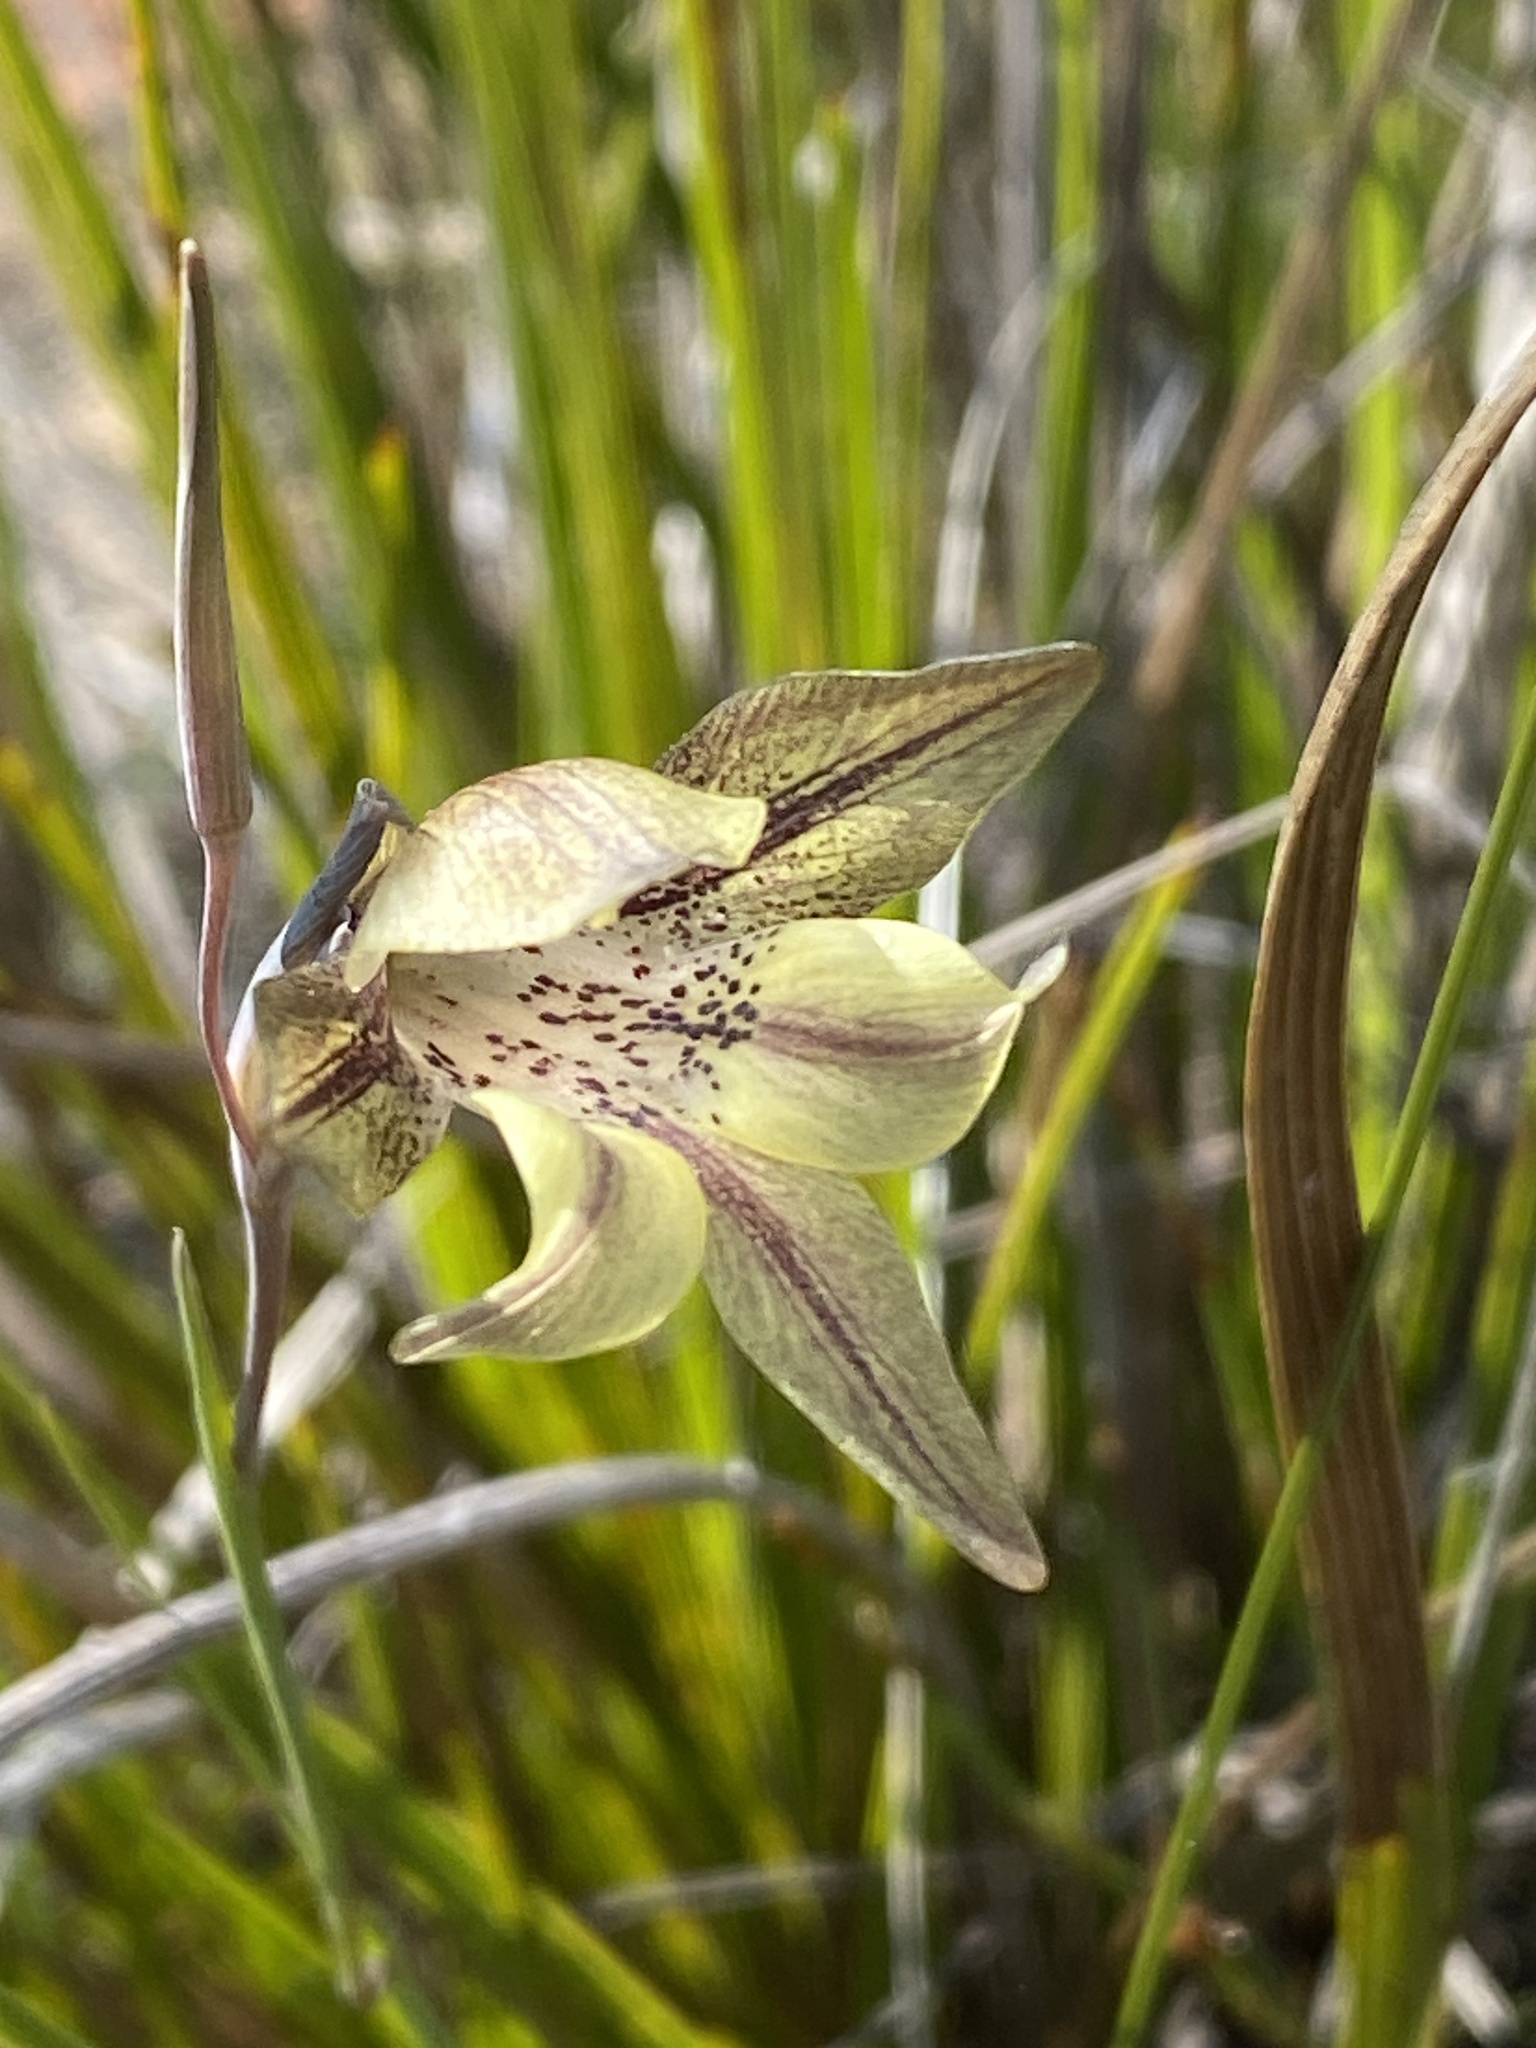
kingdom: Plantae
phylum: Tracheophyta
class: Liliopsida
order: Asparagales
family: Iridaceae
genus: Gladiolus
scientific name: Gladiolus hyalinus
